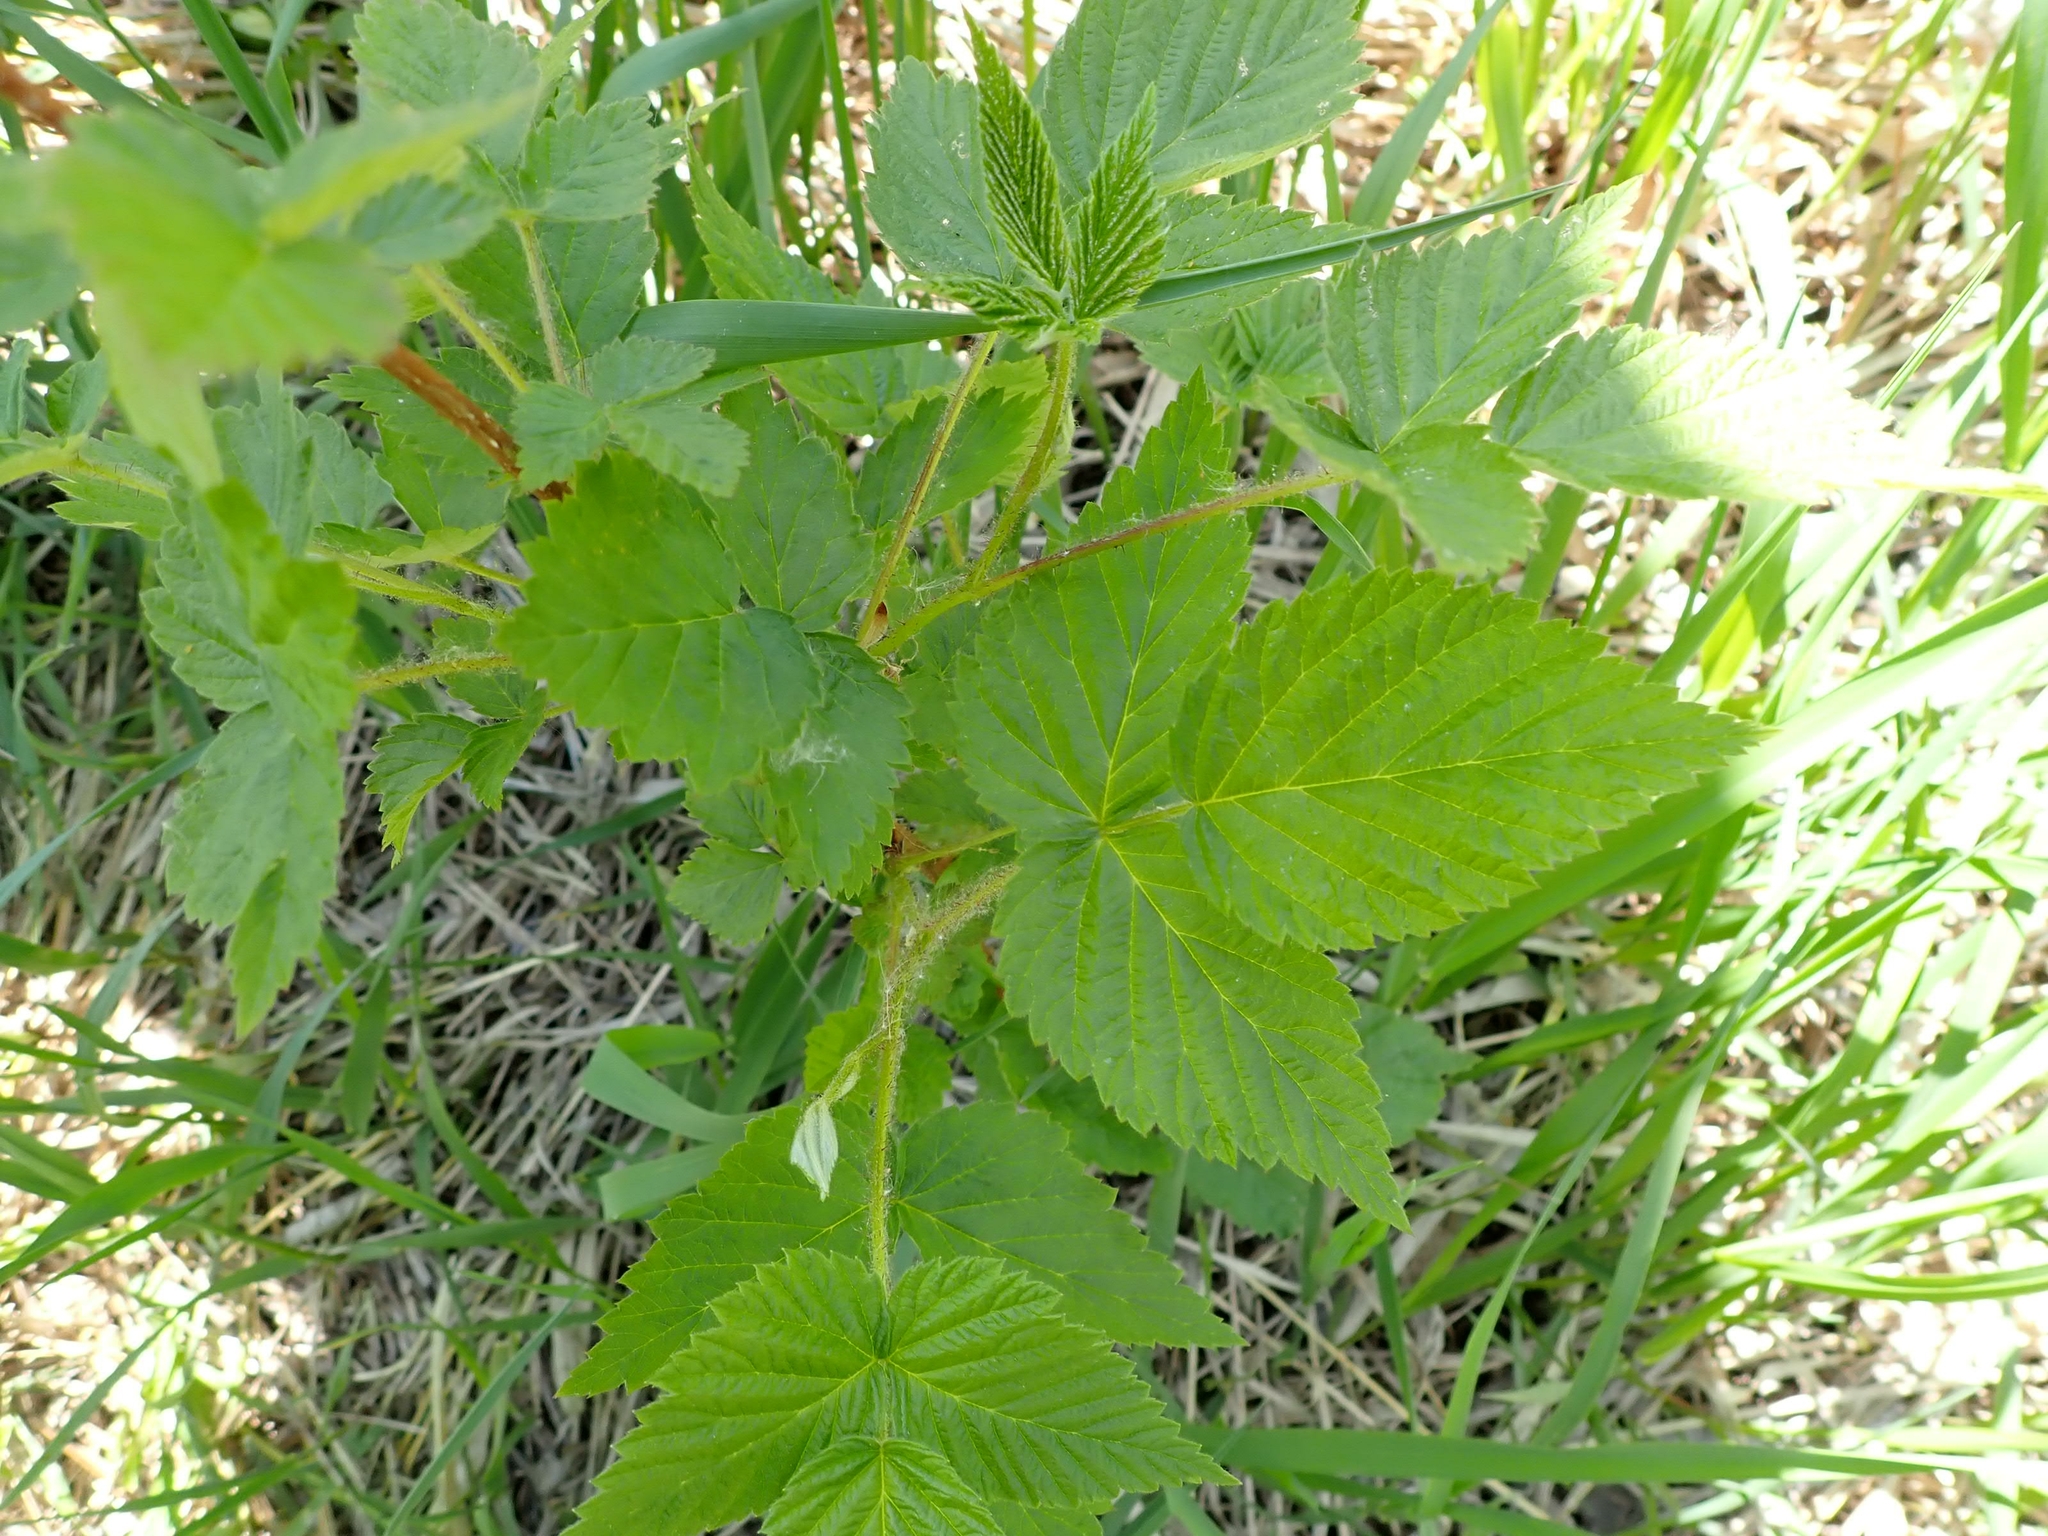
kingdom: Plantae
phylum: Tracheophyta
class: Magnoliopsida
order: Rosales
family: Rosaceae
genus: Rubus
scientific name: Rubus idaeus
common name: Raspberry
